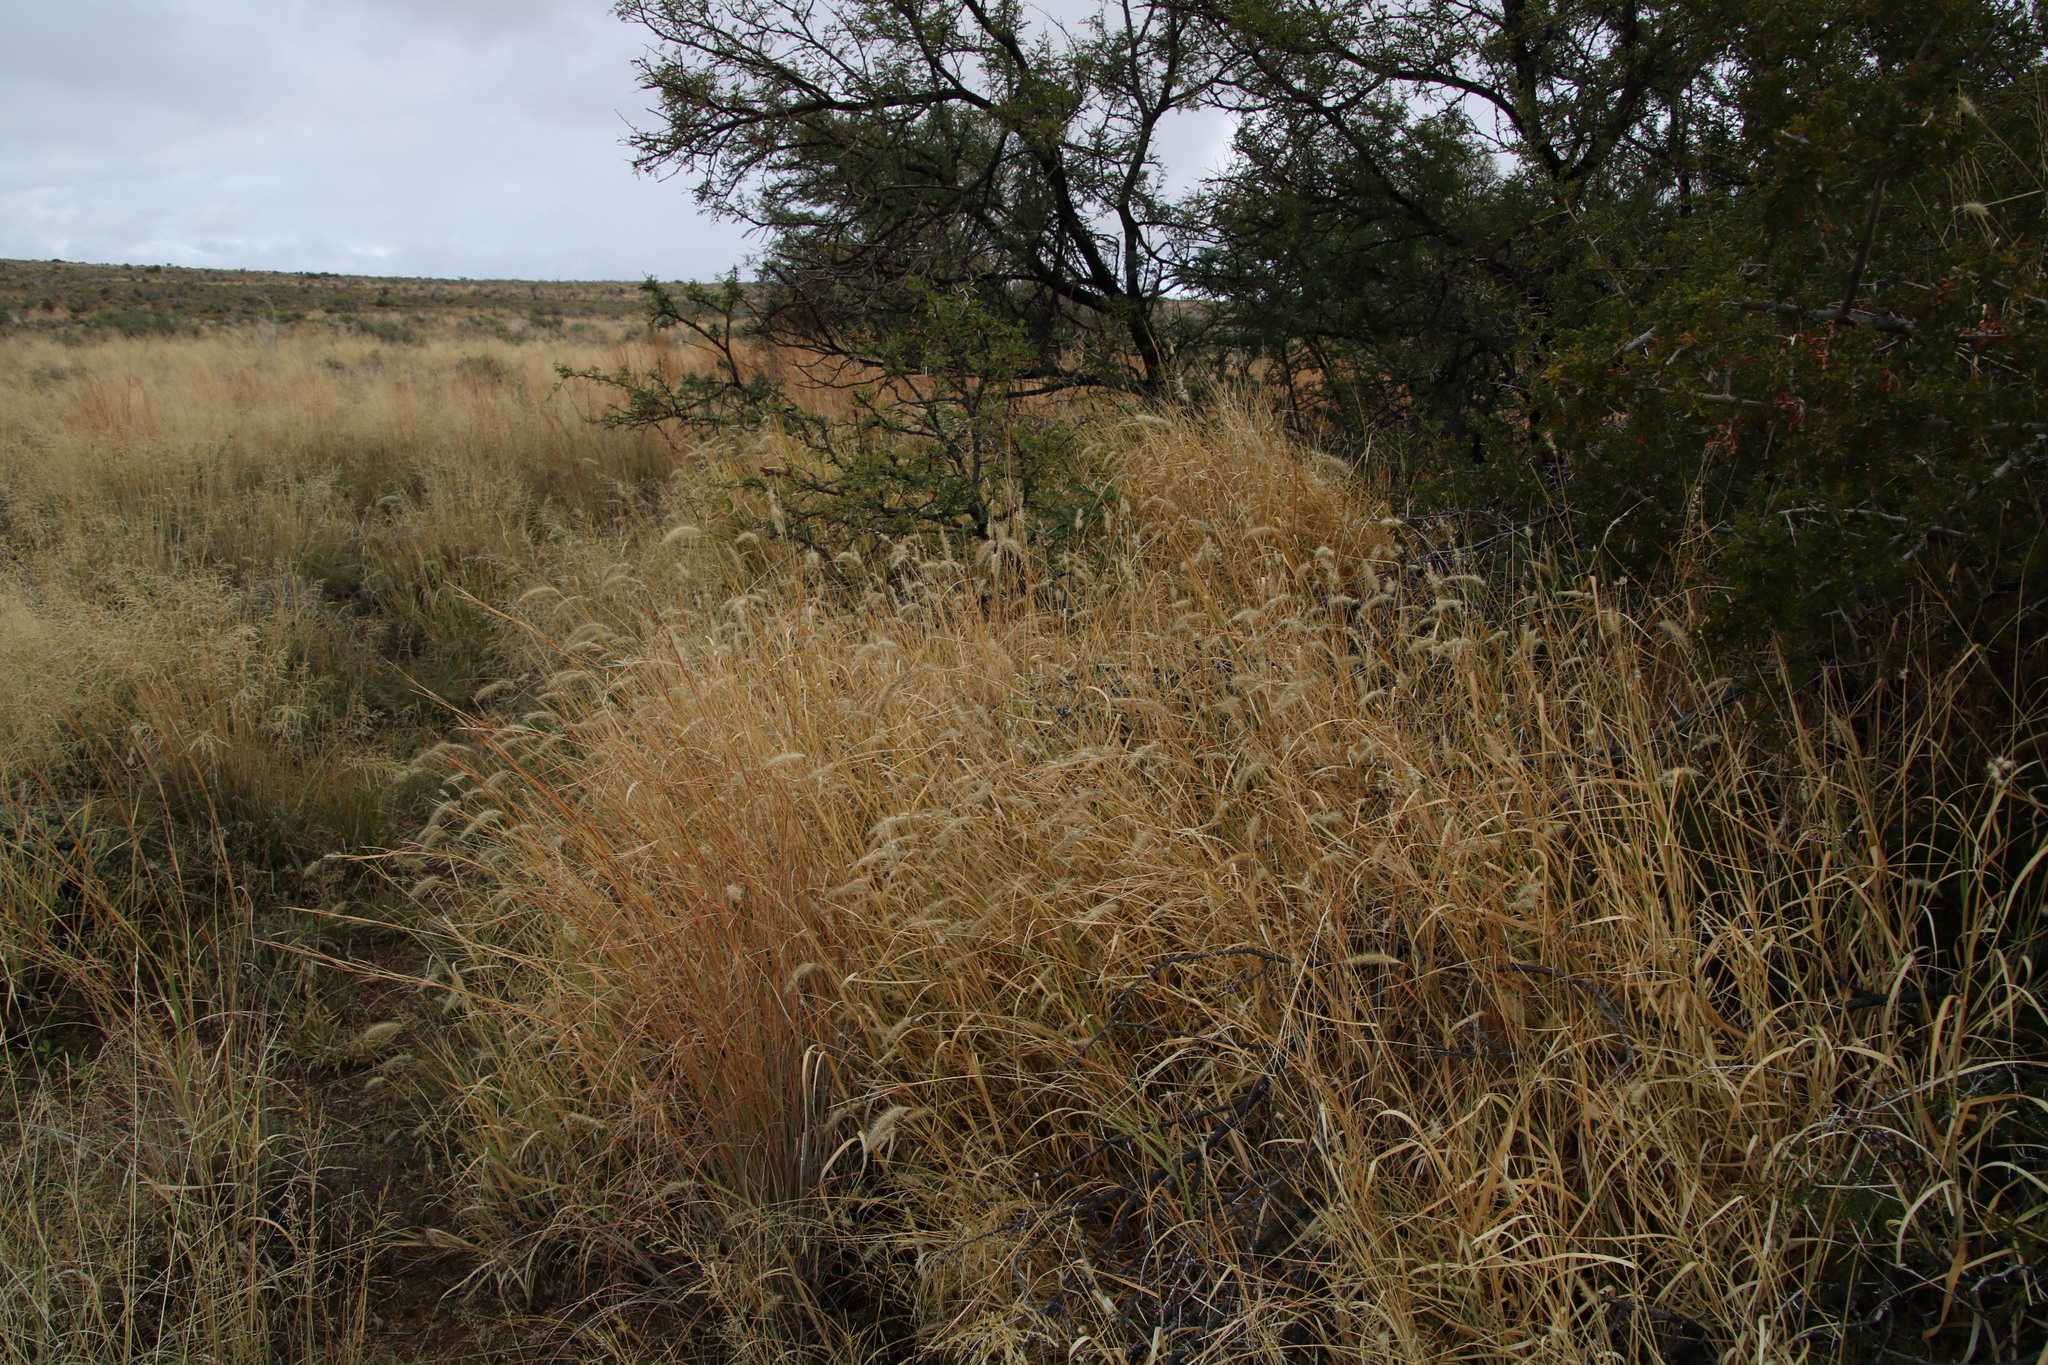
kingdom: Plantae
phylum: Tracheophyta
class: Liliopsida
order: Poales
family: Poaceae
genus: Cenchrus
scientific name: Cenchrus ciliaris
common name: Buffelgrass
